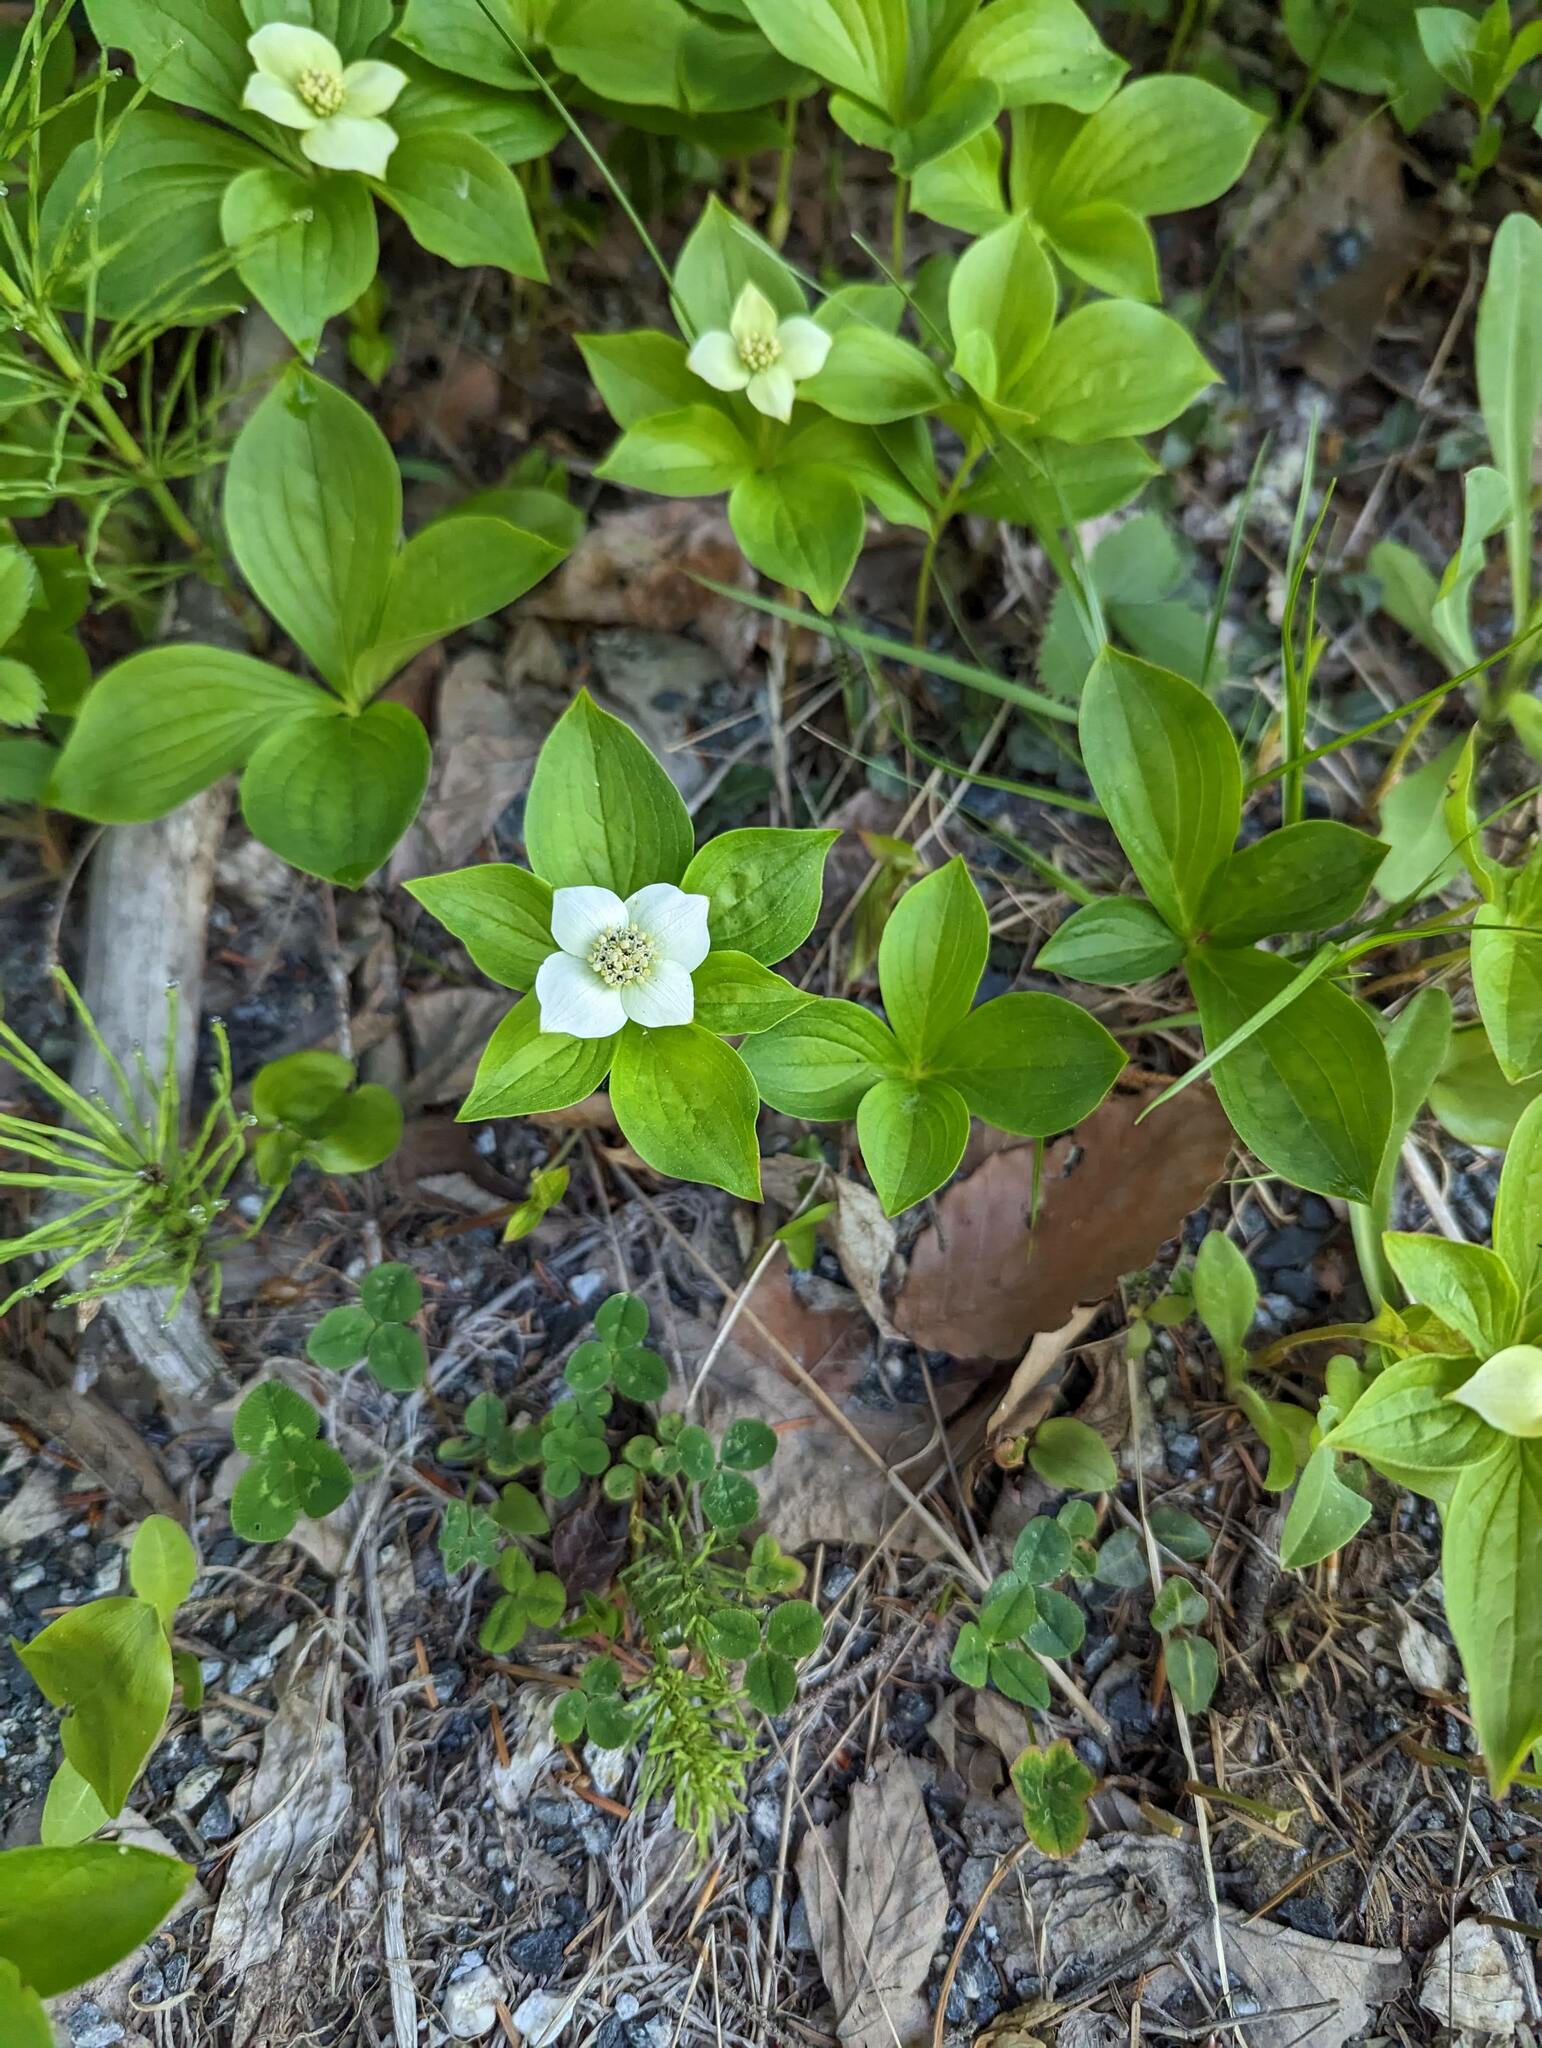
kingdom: Plantae
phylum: Tracheophyta
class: Magnoliopsida
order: Cornales
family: Cornaceae
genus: Cornus
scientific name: Cornus canadensis
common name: Creeping dogwood
